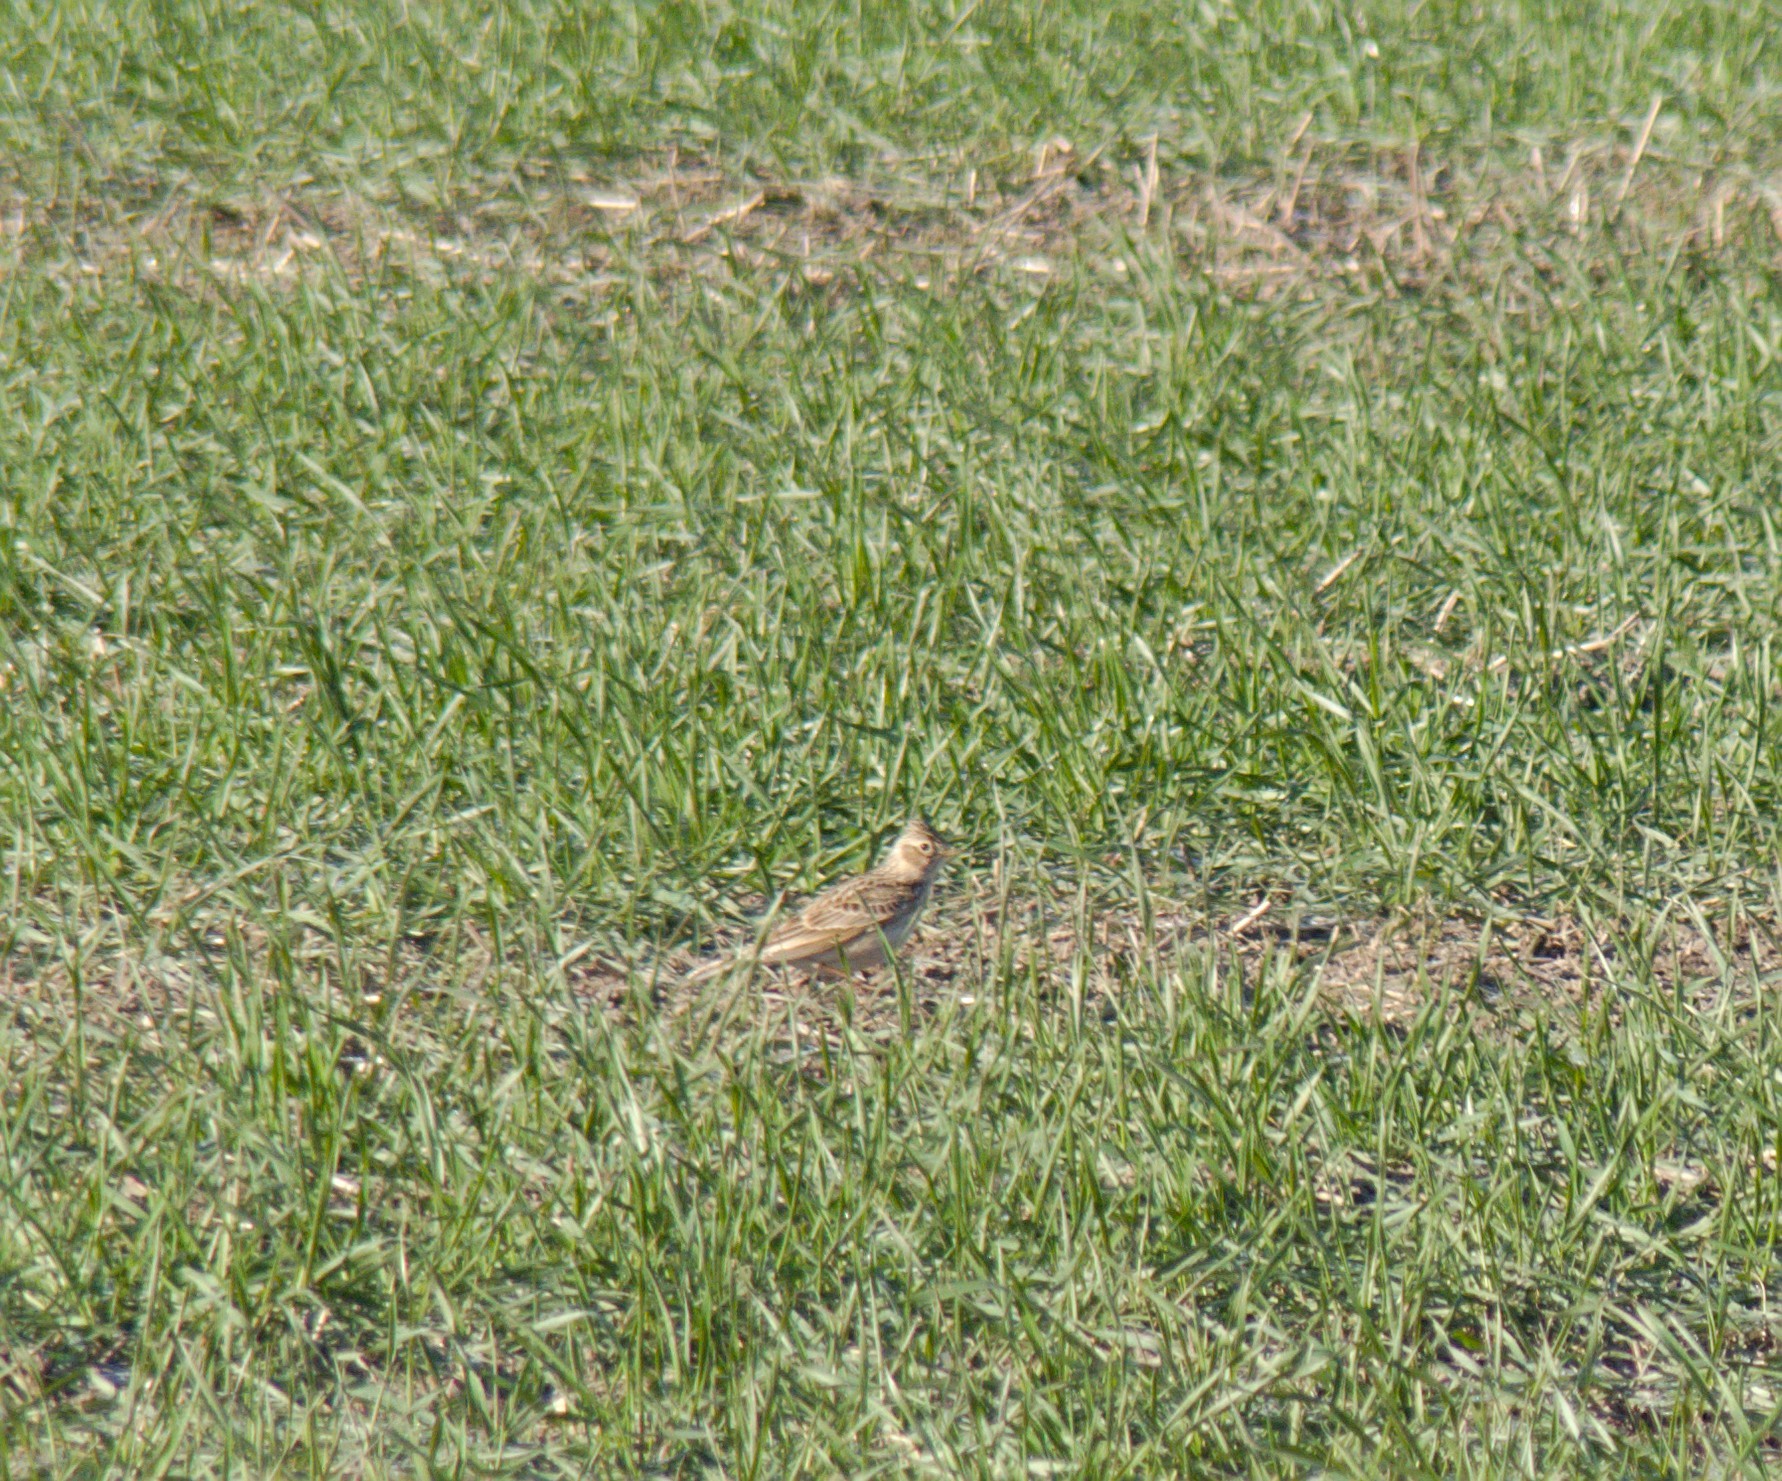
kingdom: Animalia
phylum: Chordata
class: Aves
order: Passeriformes
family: Alaudidae
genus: Alauda
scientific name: Alauda arvensis
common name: Eurasian skylark
